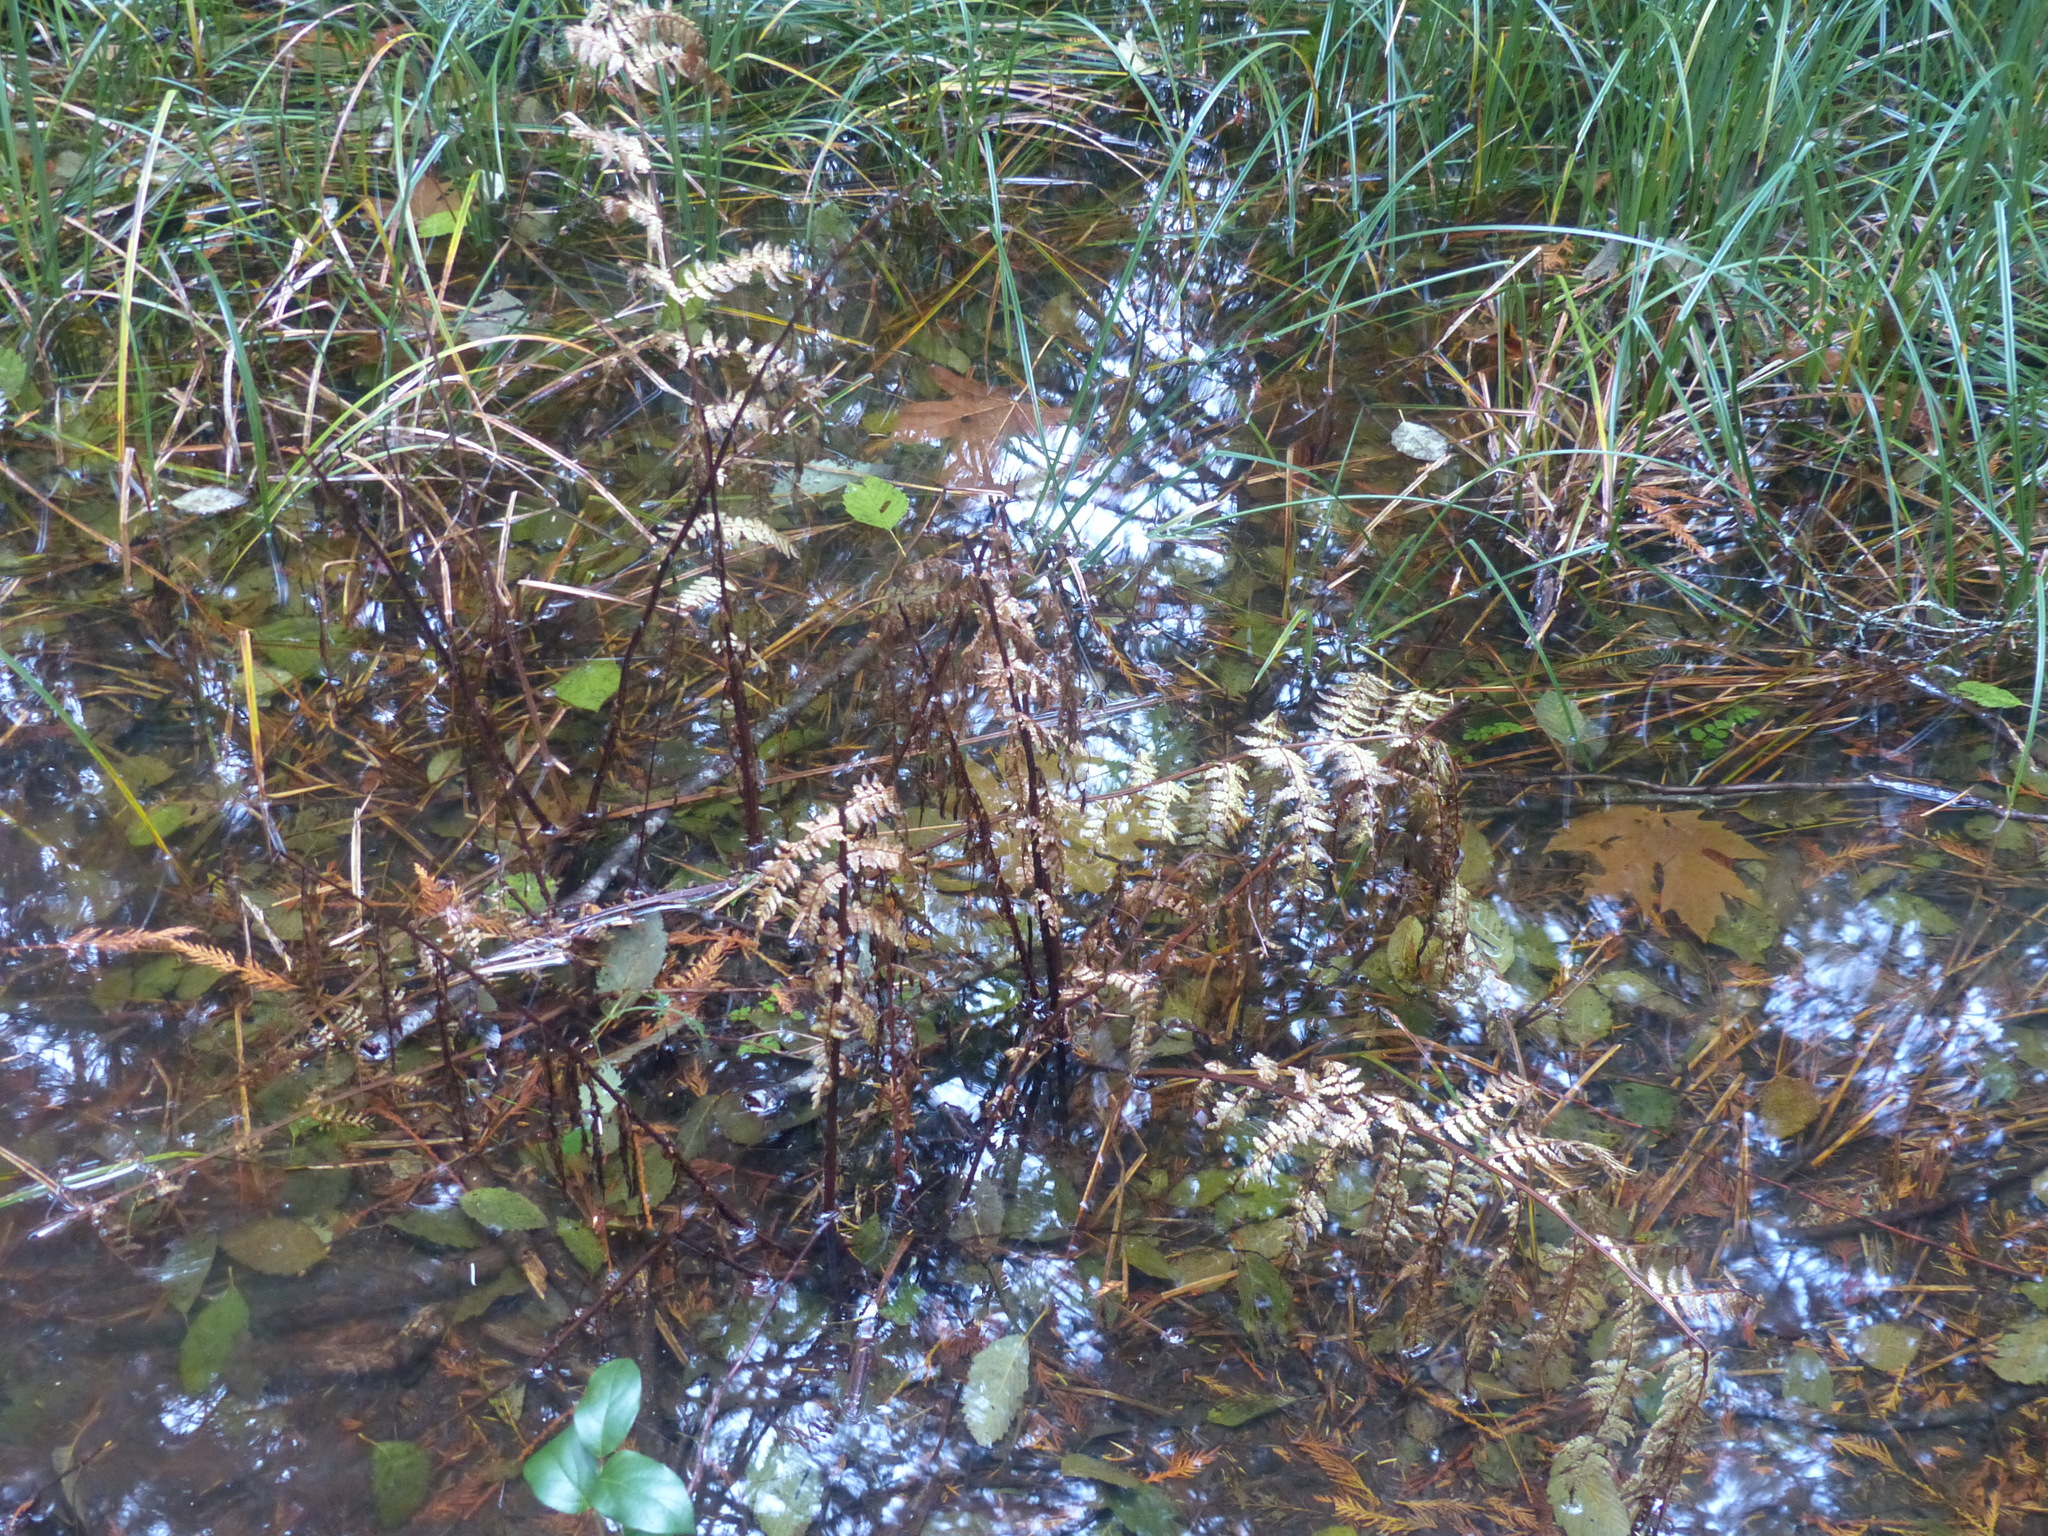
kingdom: Plantae
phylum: Tracheophyta
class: Polypodiopsida
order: Polypodiales
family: Athyriaceae
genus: Athyrium
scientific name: Athyrium filix-femina
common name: Lady fern
